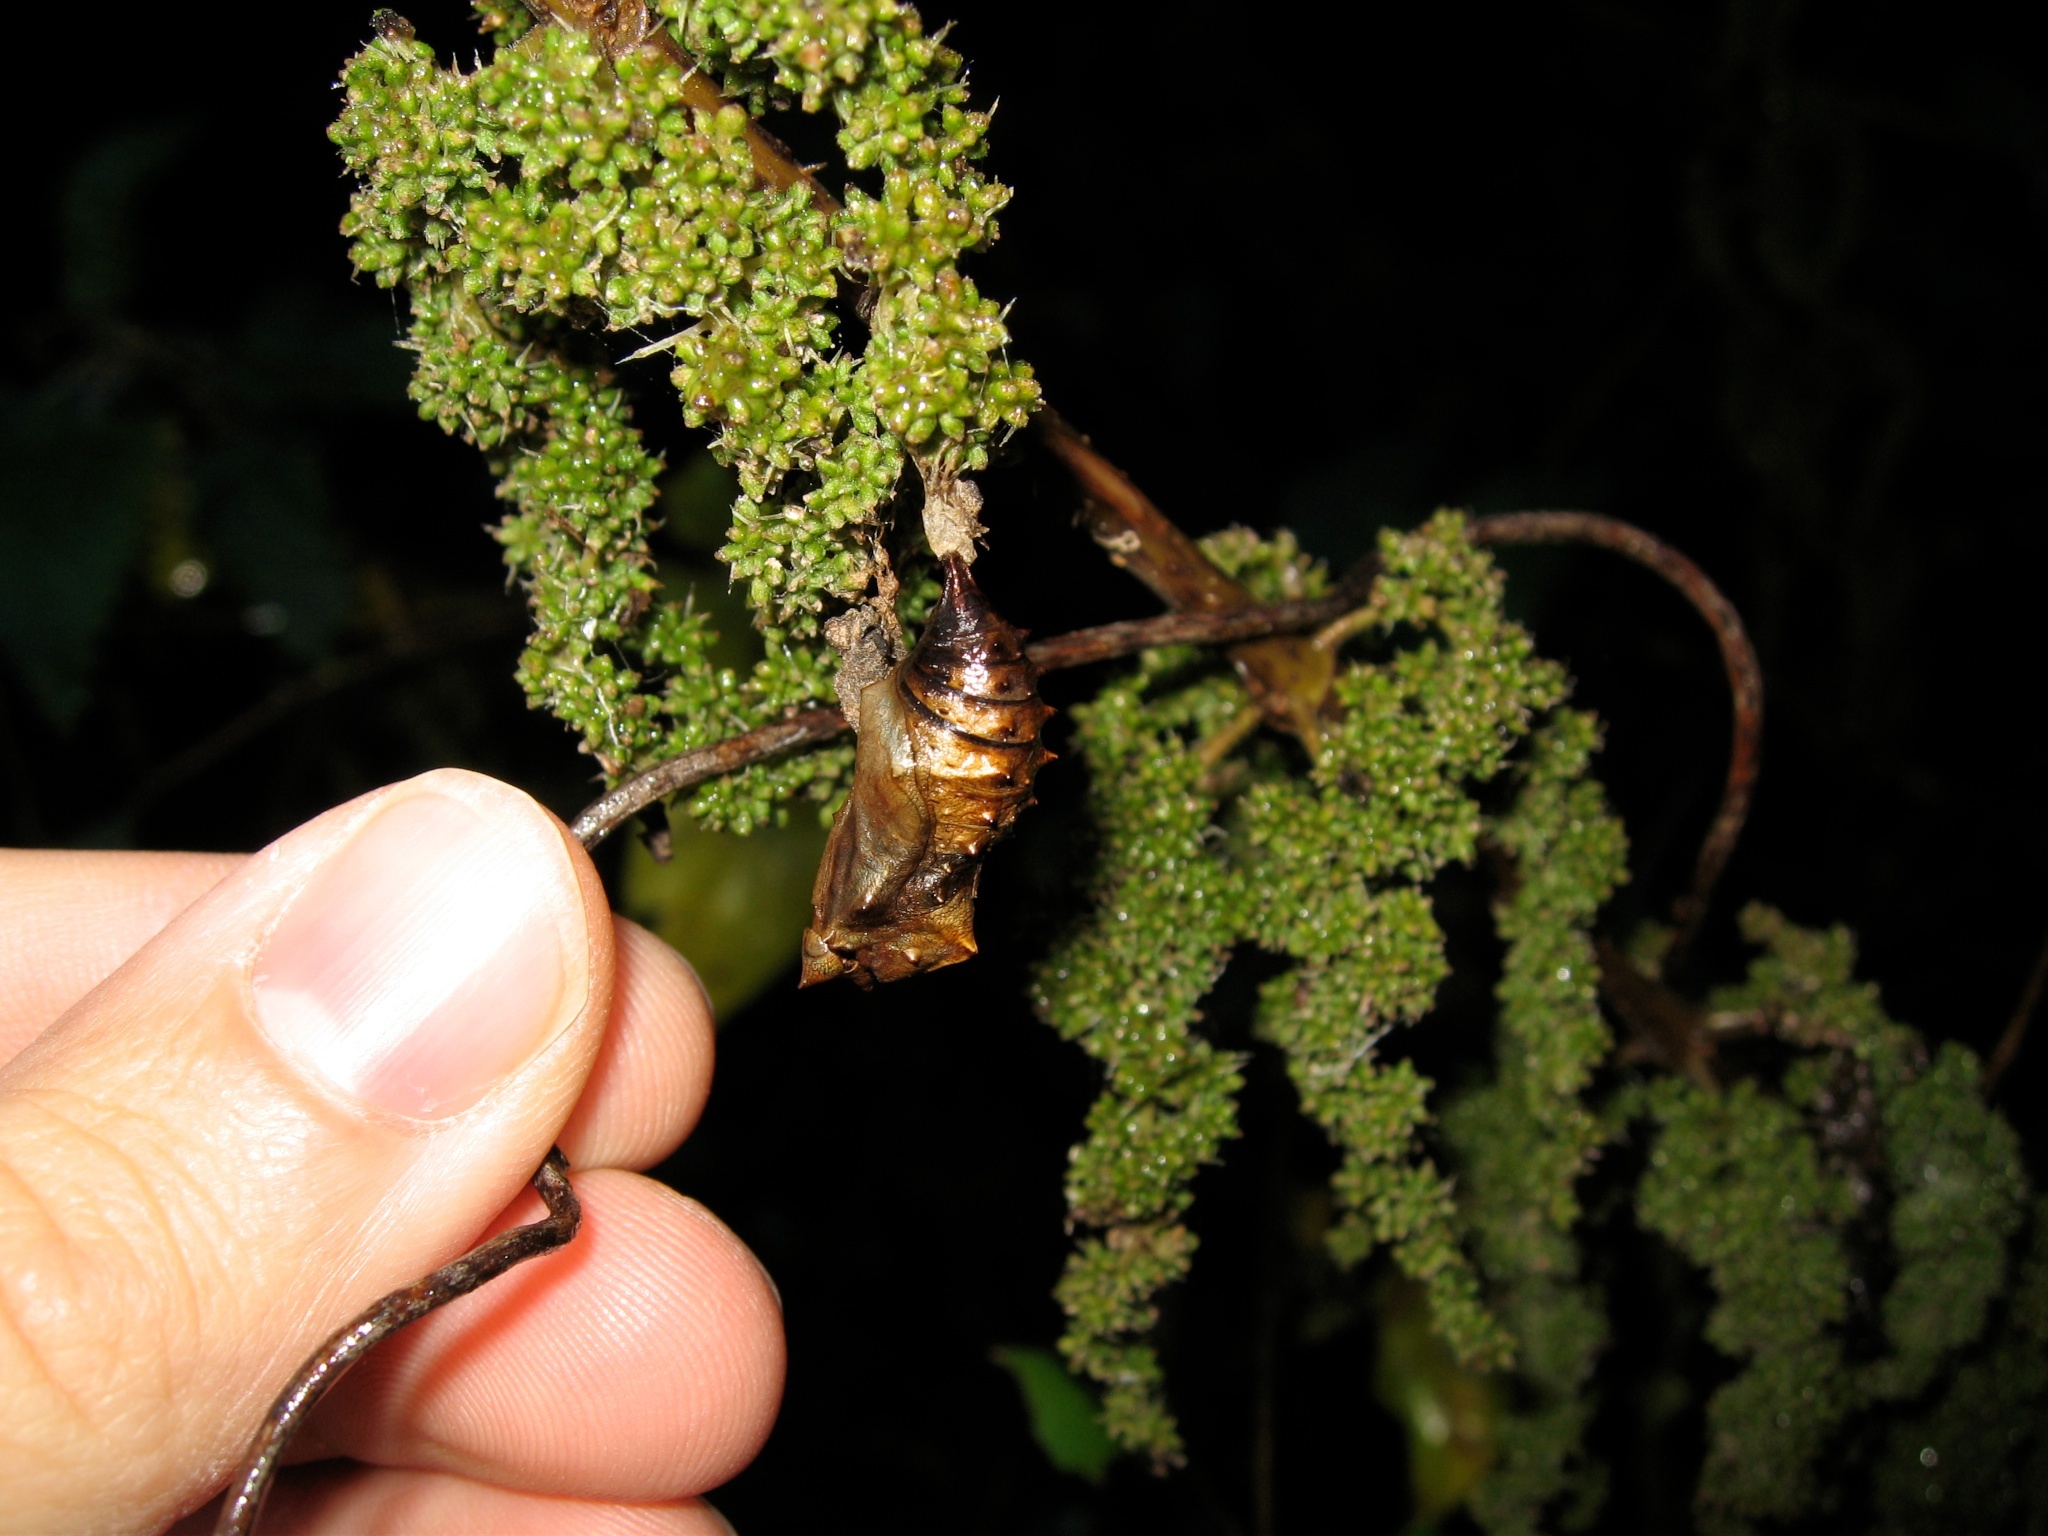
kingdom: Animalia
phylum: Arthropoda
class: Insecta
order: Lepidoptera
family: Nymphalidae
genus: Vanessa
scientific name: Vanessa gonerilla
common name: New zealand red admiral
